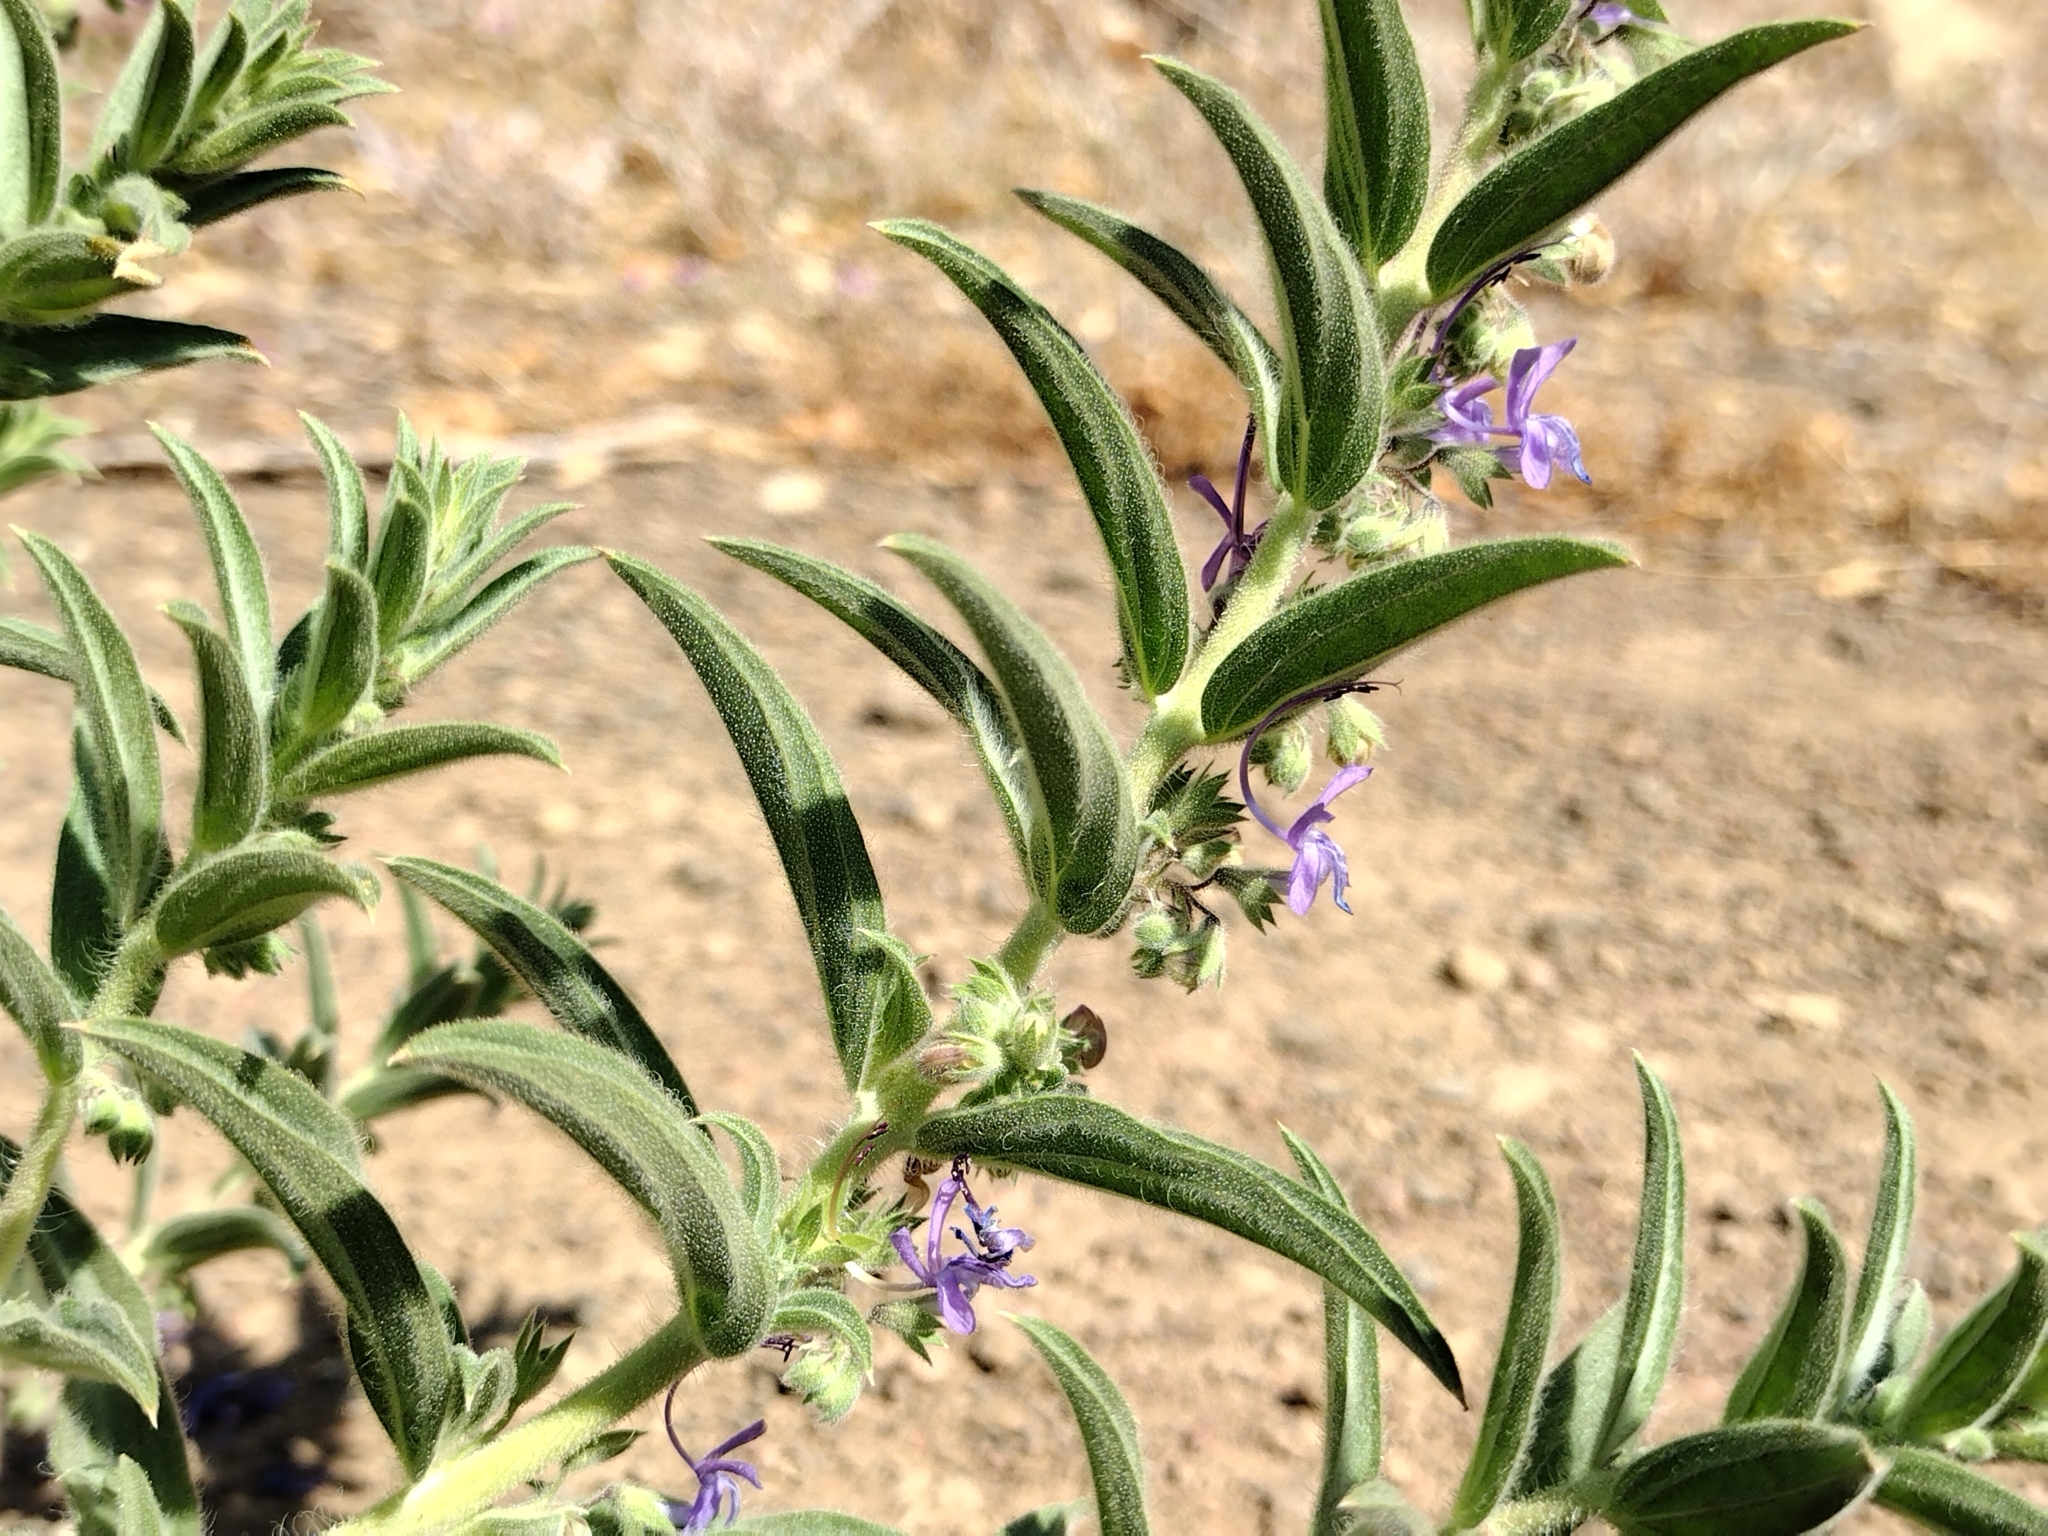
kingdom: Plantae
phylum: Tracheophyta
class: Magnoliopsida
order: Lamiales
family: Lamiaceae
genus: Trichostema
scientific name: Trichostema lanceolatum
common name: Vinegar-weed
